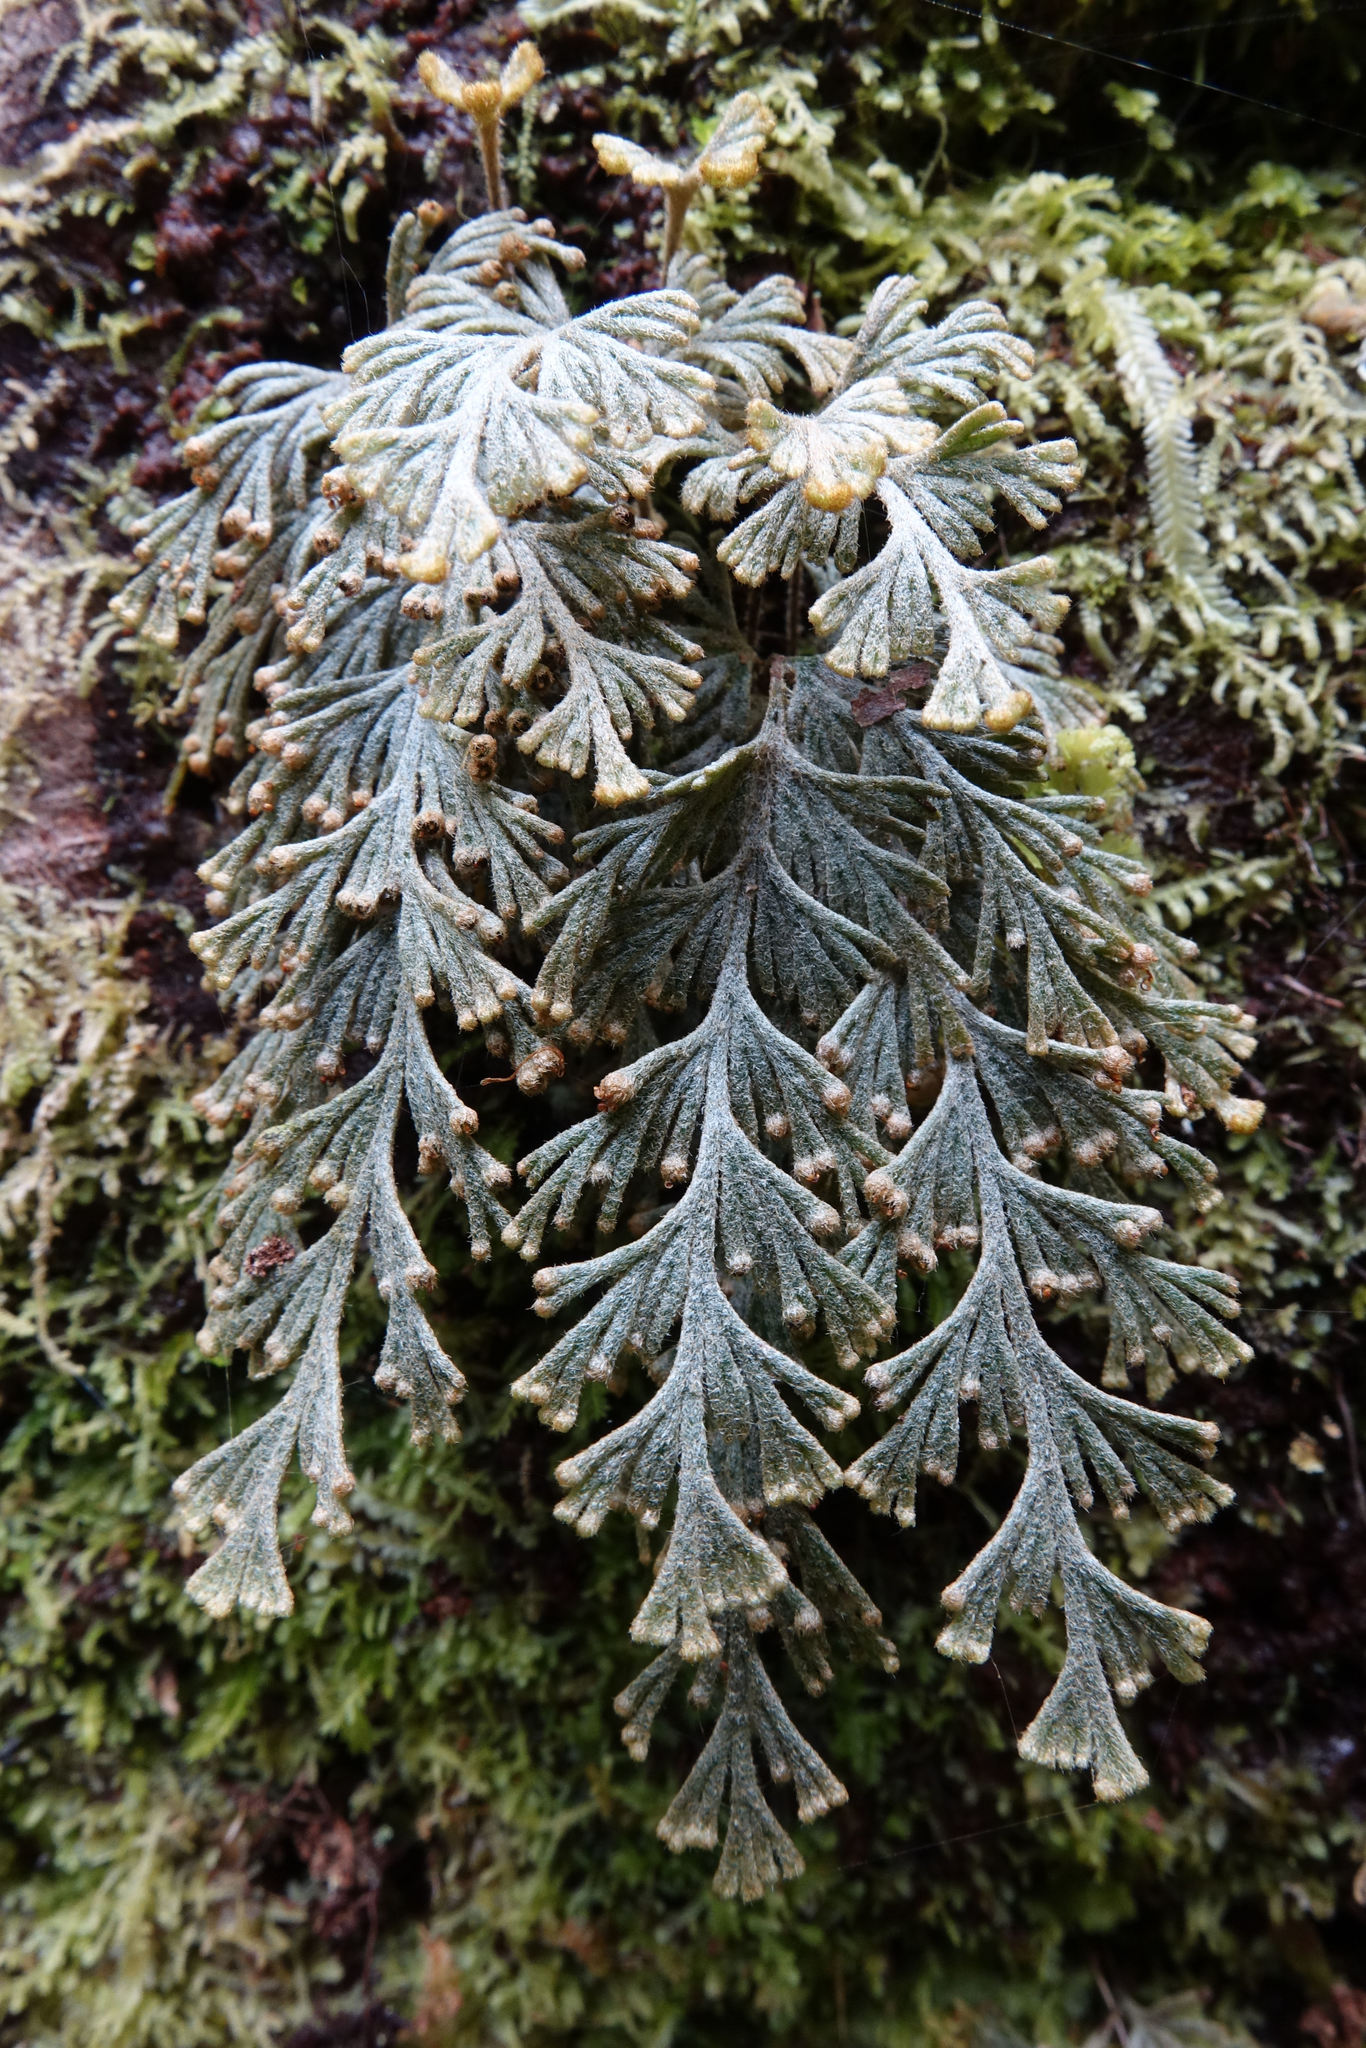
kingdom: Plantae
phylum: Tracheophyta
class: Polypodiopsida
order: Hymenophyllales
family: Hymenophyllaceae
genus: Hymenophyllum
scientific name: Hymenophyllum malingii
